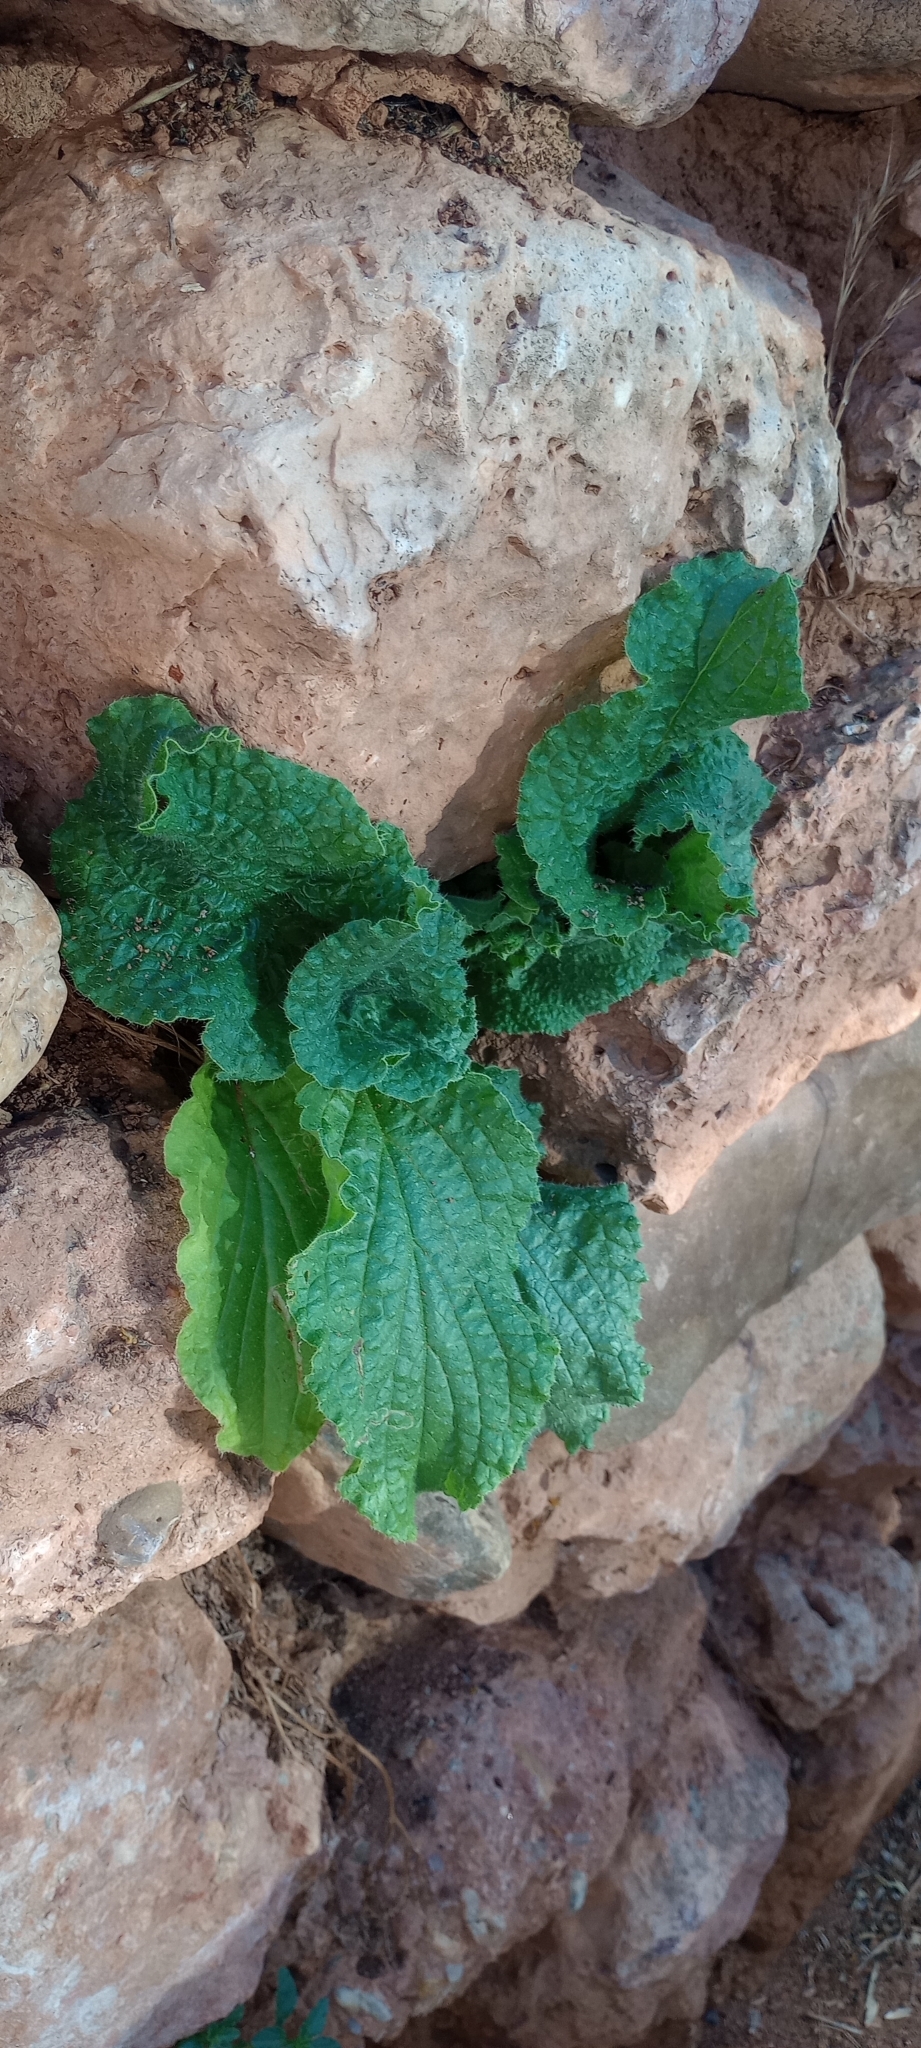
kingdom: Plantae
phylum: Tracheophyta
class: Magnoliopsida
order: Boraginales
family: Boraginaceae
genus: Borago
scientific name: Borago officinalis
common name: Borage
